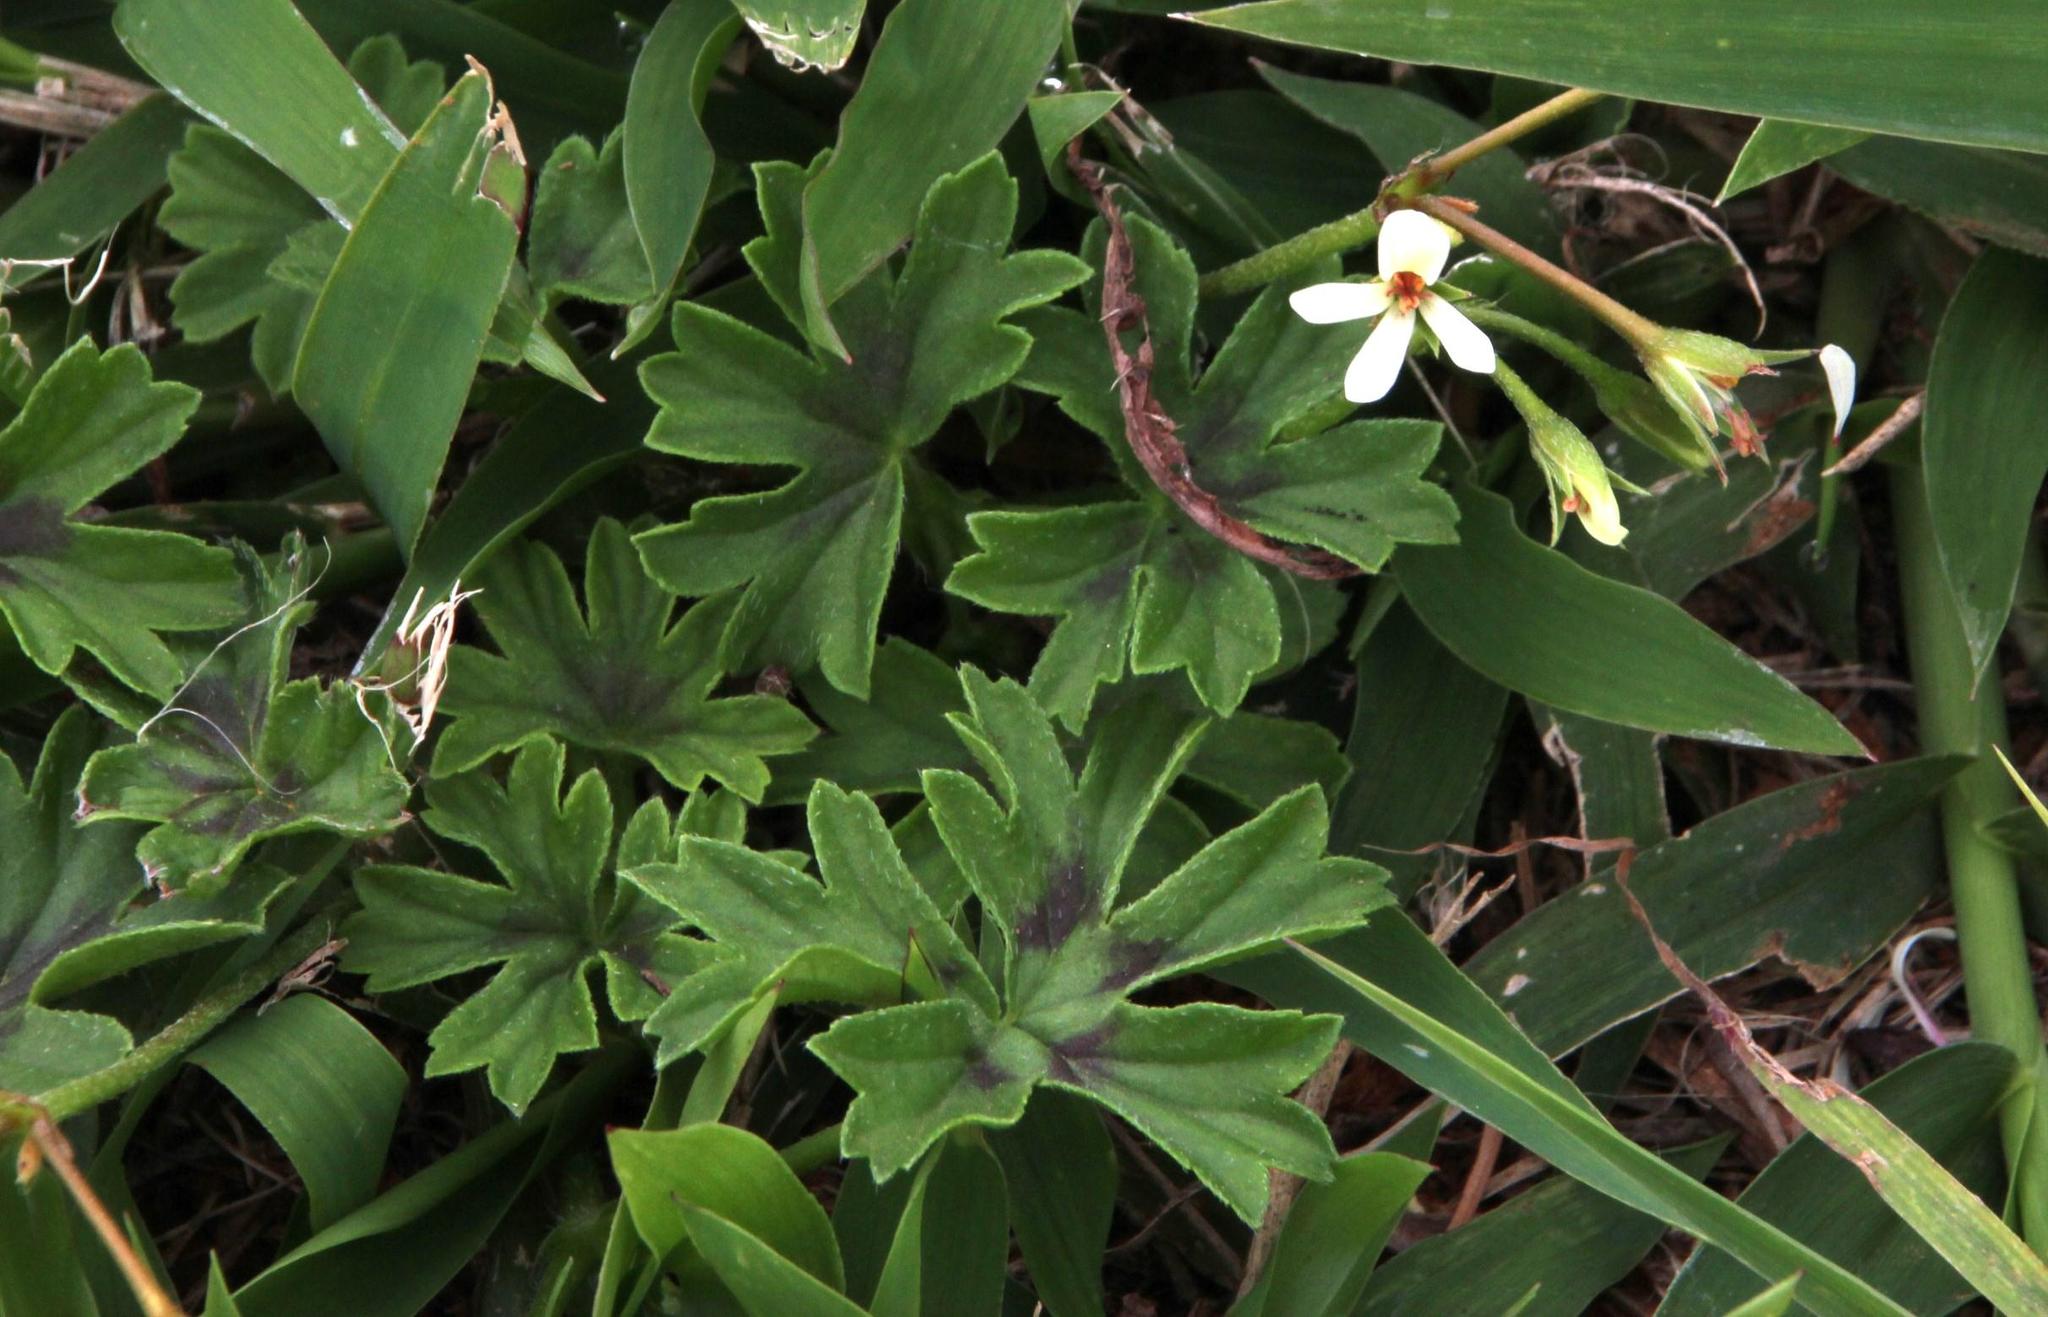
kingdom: Plantae
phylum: Tracheophyta
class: Magnoliopsida
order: Geraniales
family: Geraniaceae
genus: Pelargonium
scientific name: Pelargonium alchemilloides
